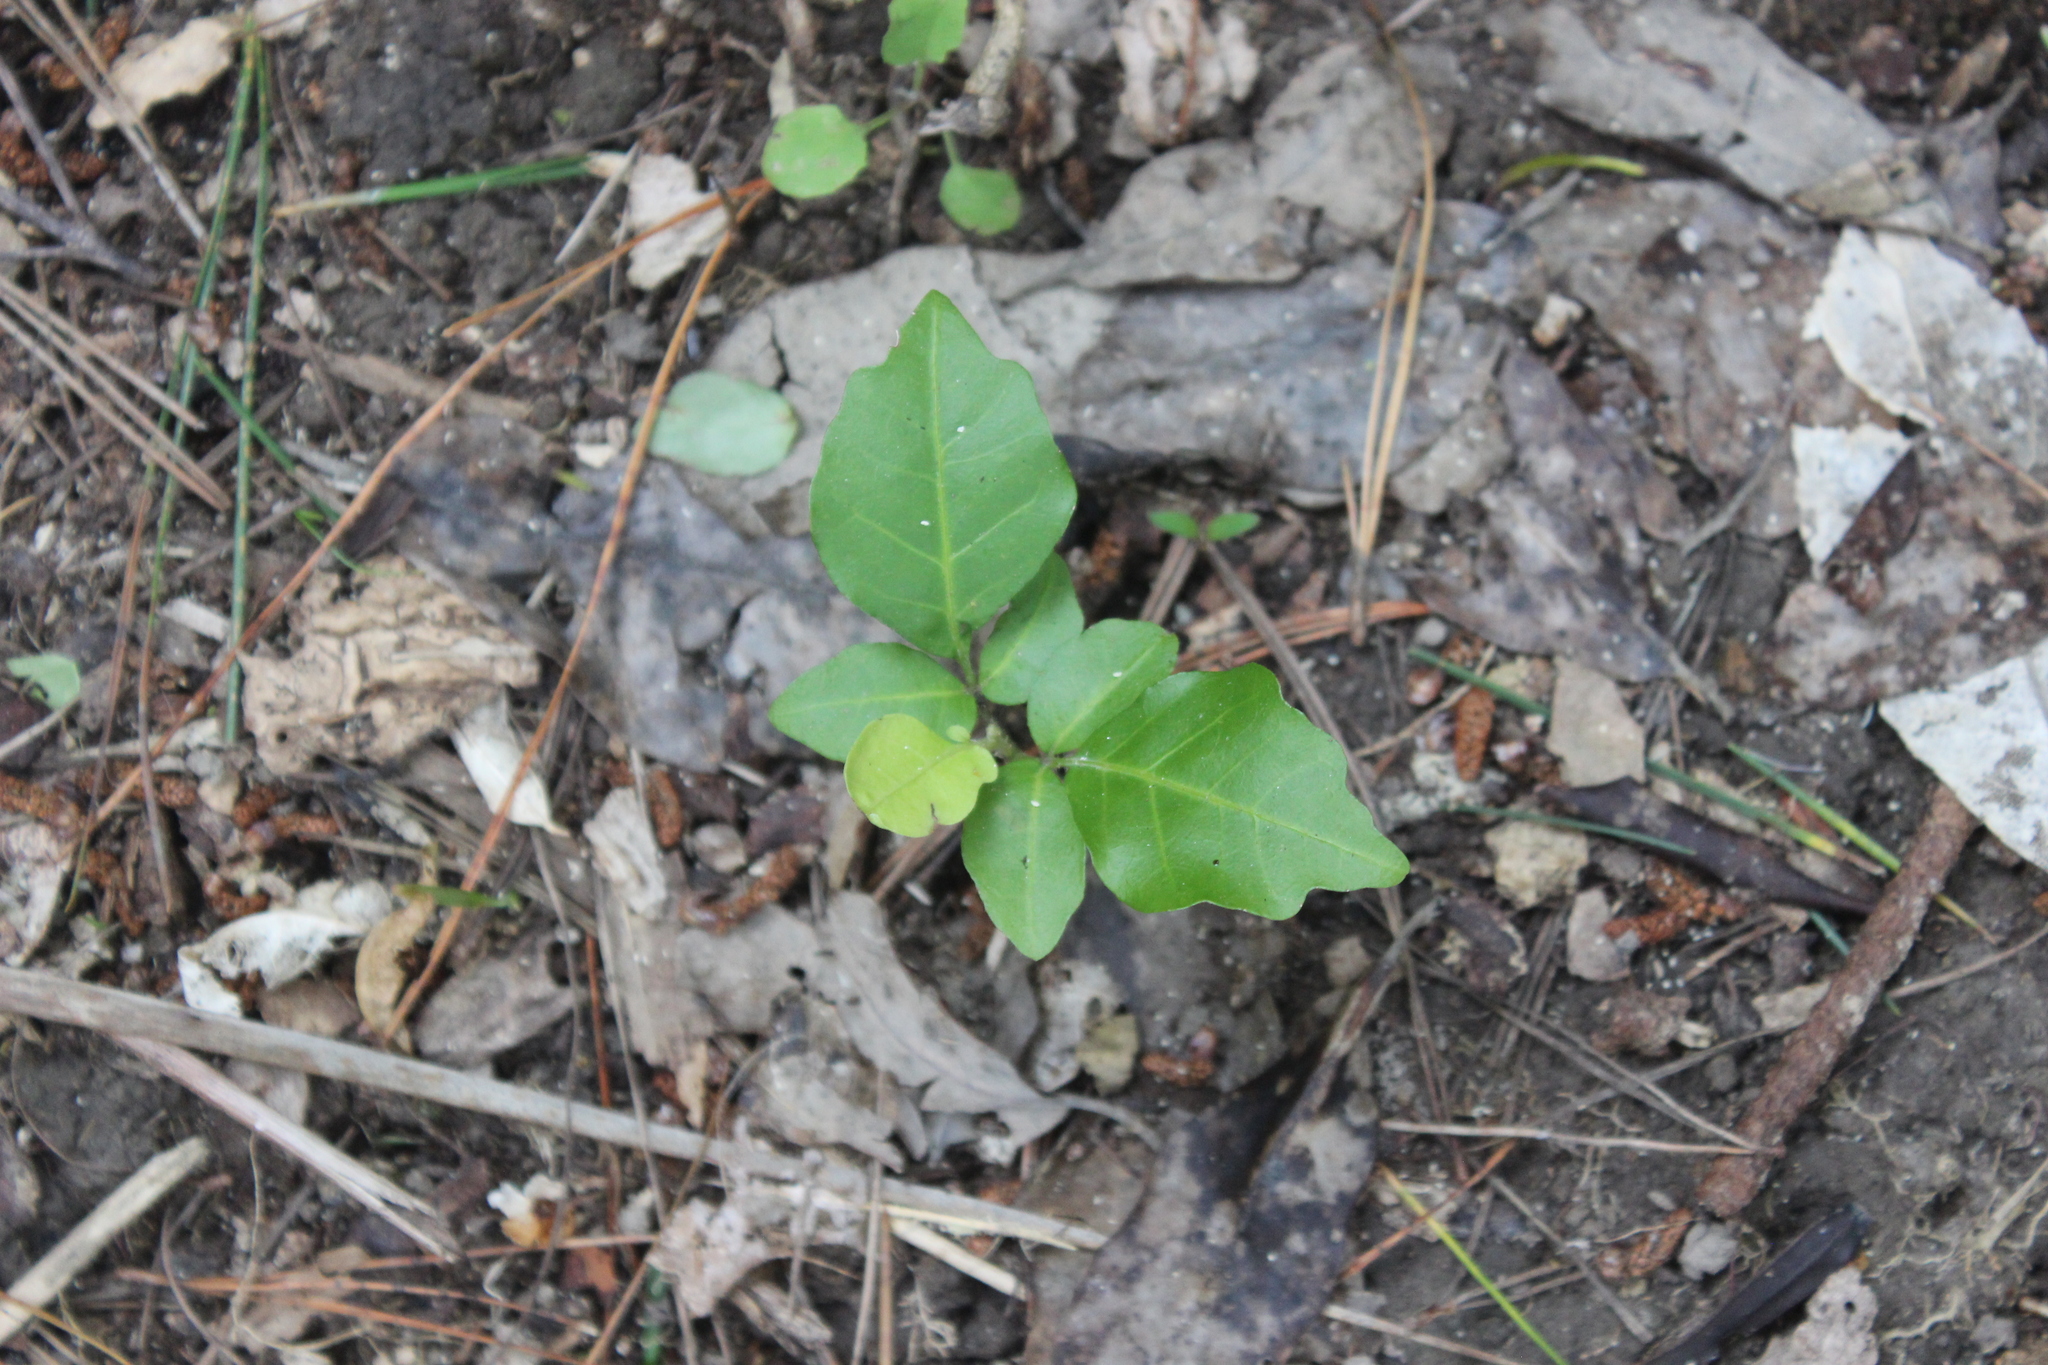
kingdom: Plantae
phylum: Tracheophyta
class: Magnoliopsida
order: Sapindales
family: Meliaceae
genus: Didymocheton
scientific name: Didymocheton spectabilis
